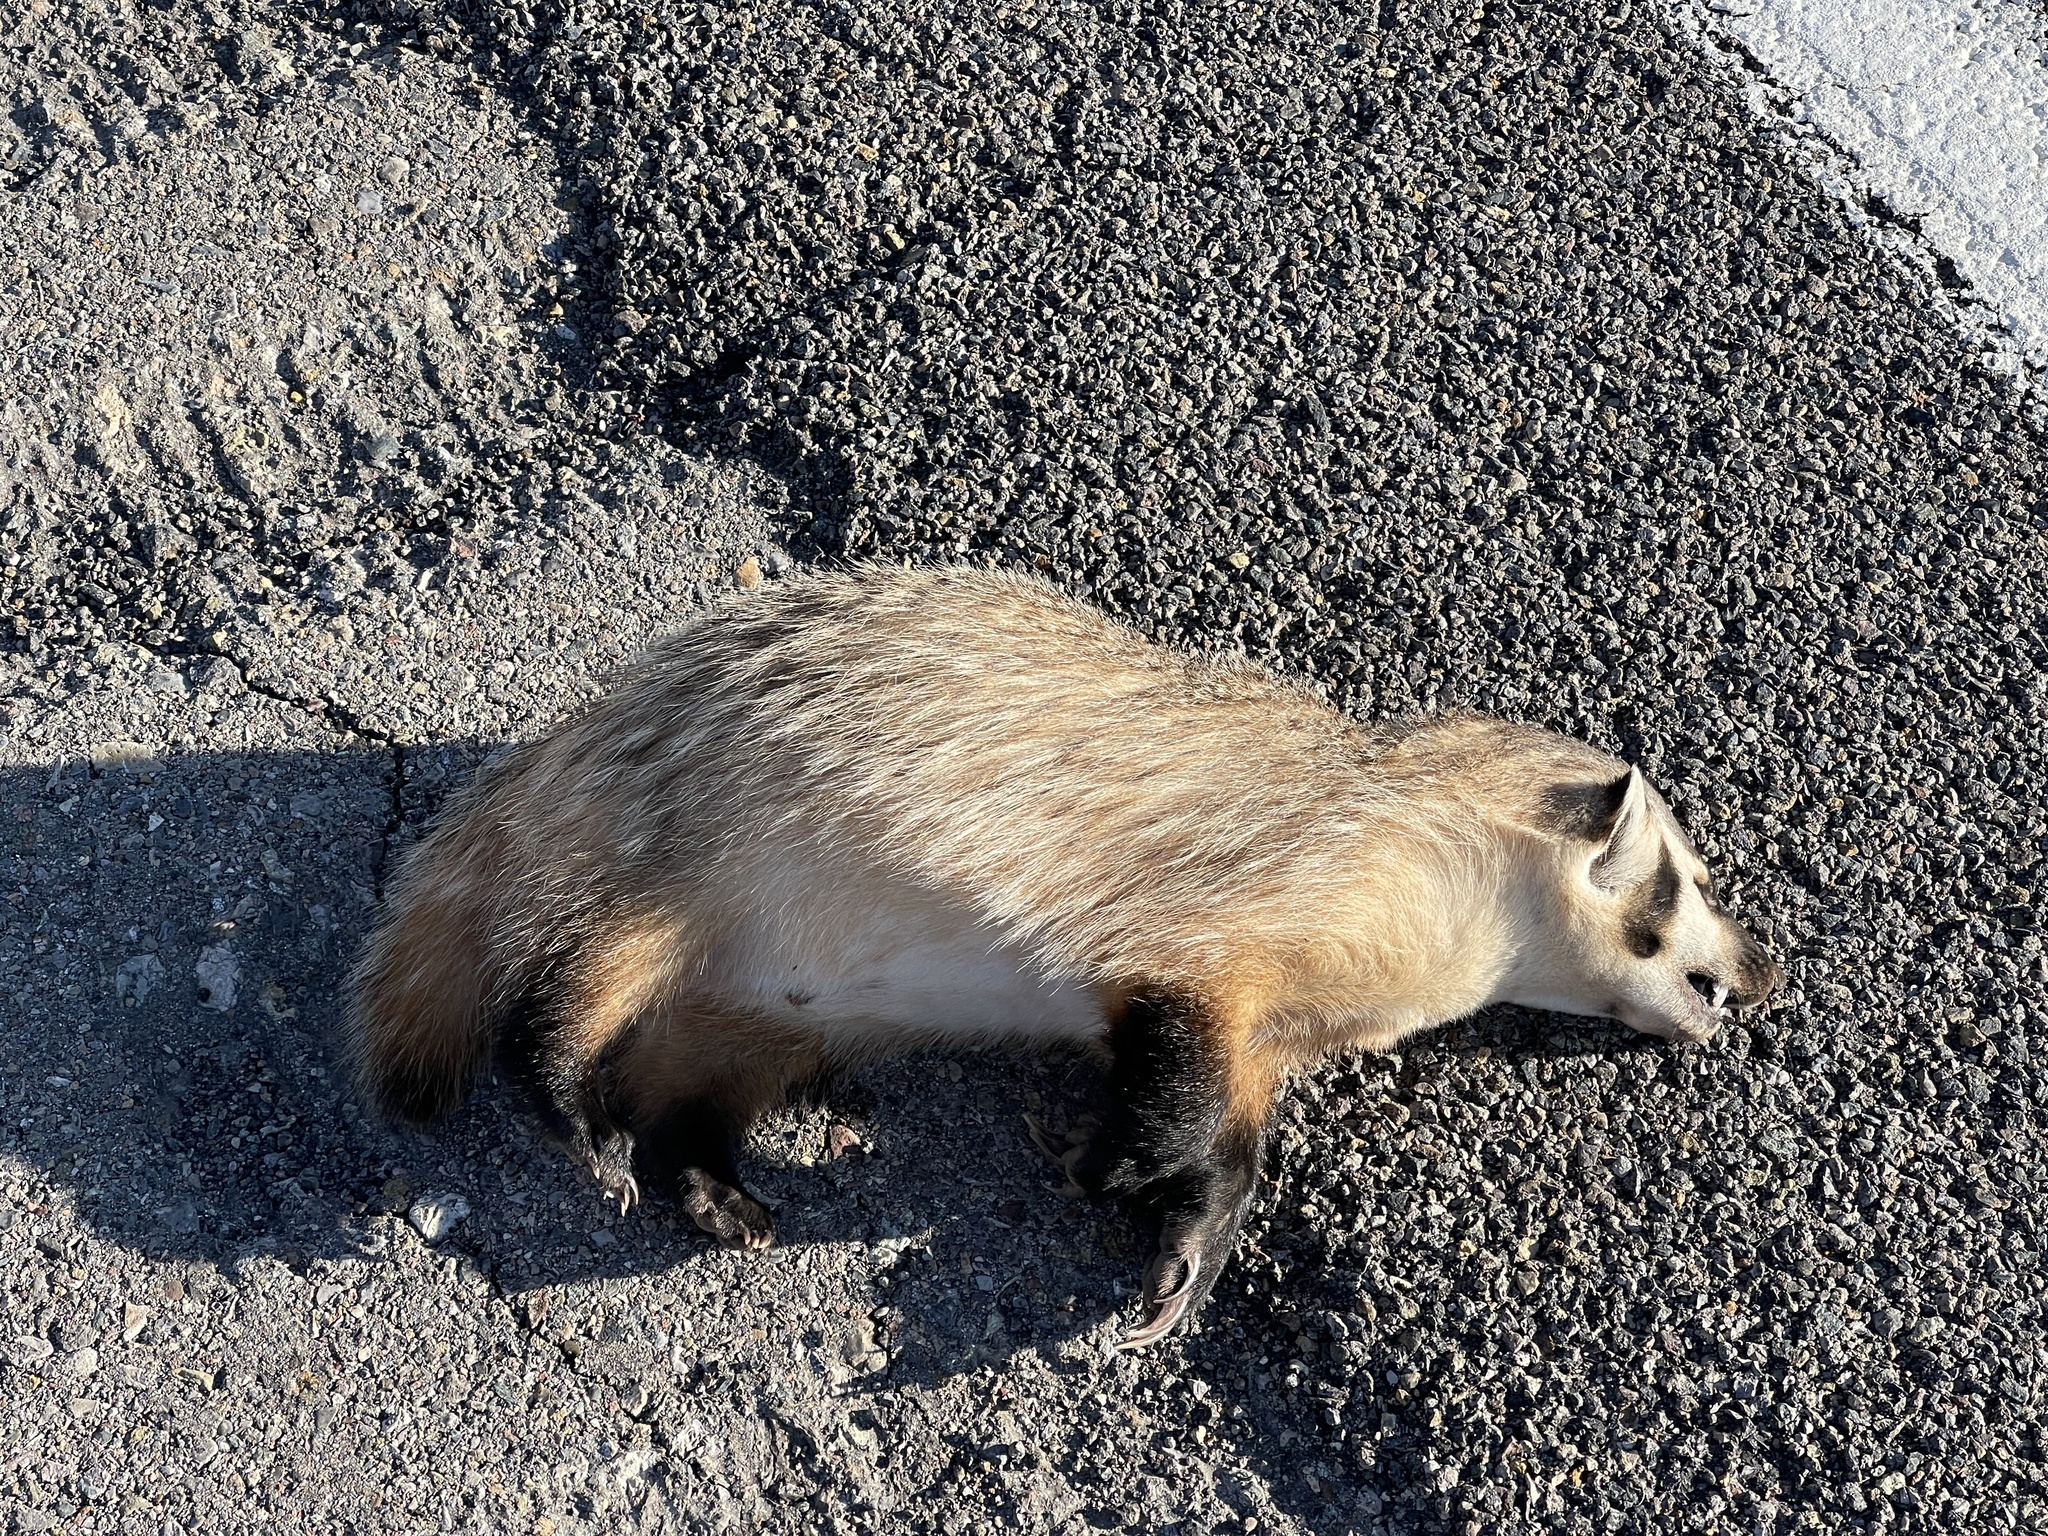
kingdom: Animalia
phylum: Chordata
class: Mammalia
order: Carnivora
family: Mustelidae
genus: Taxidea
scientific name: Taxidea taxus
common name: American badger
